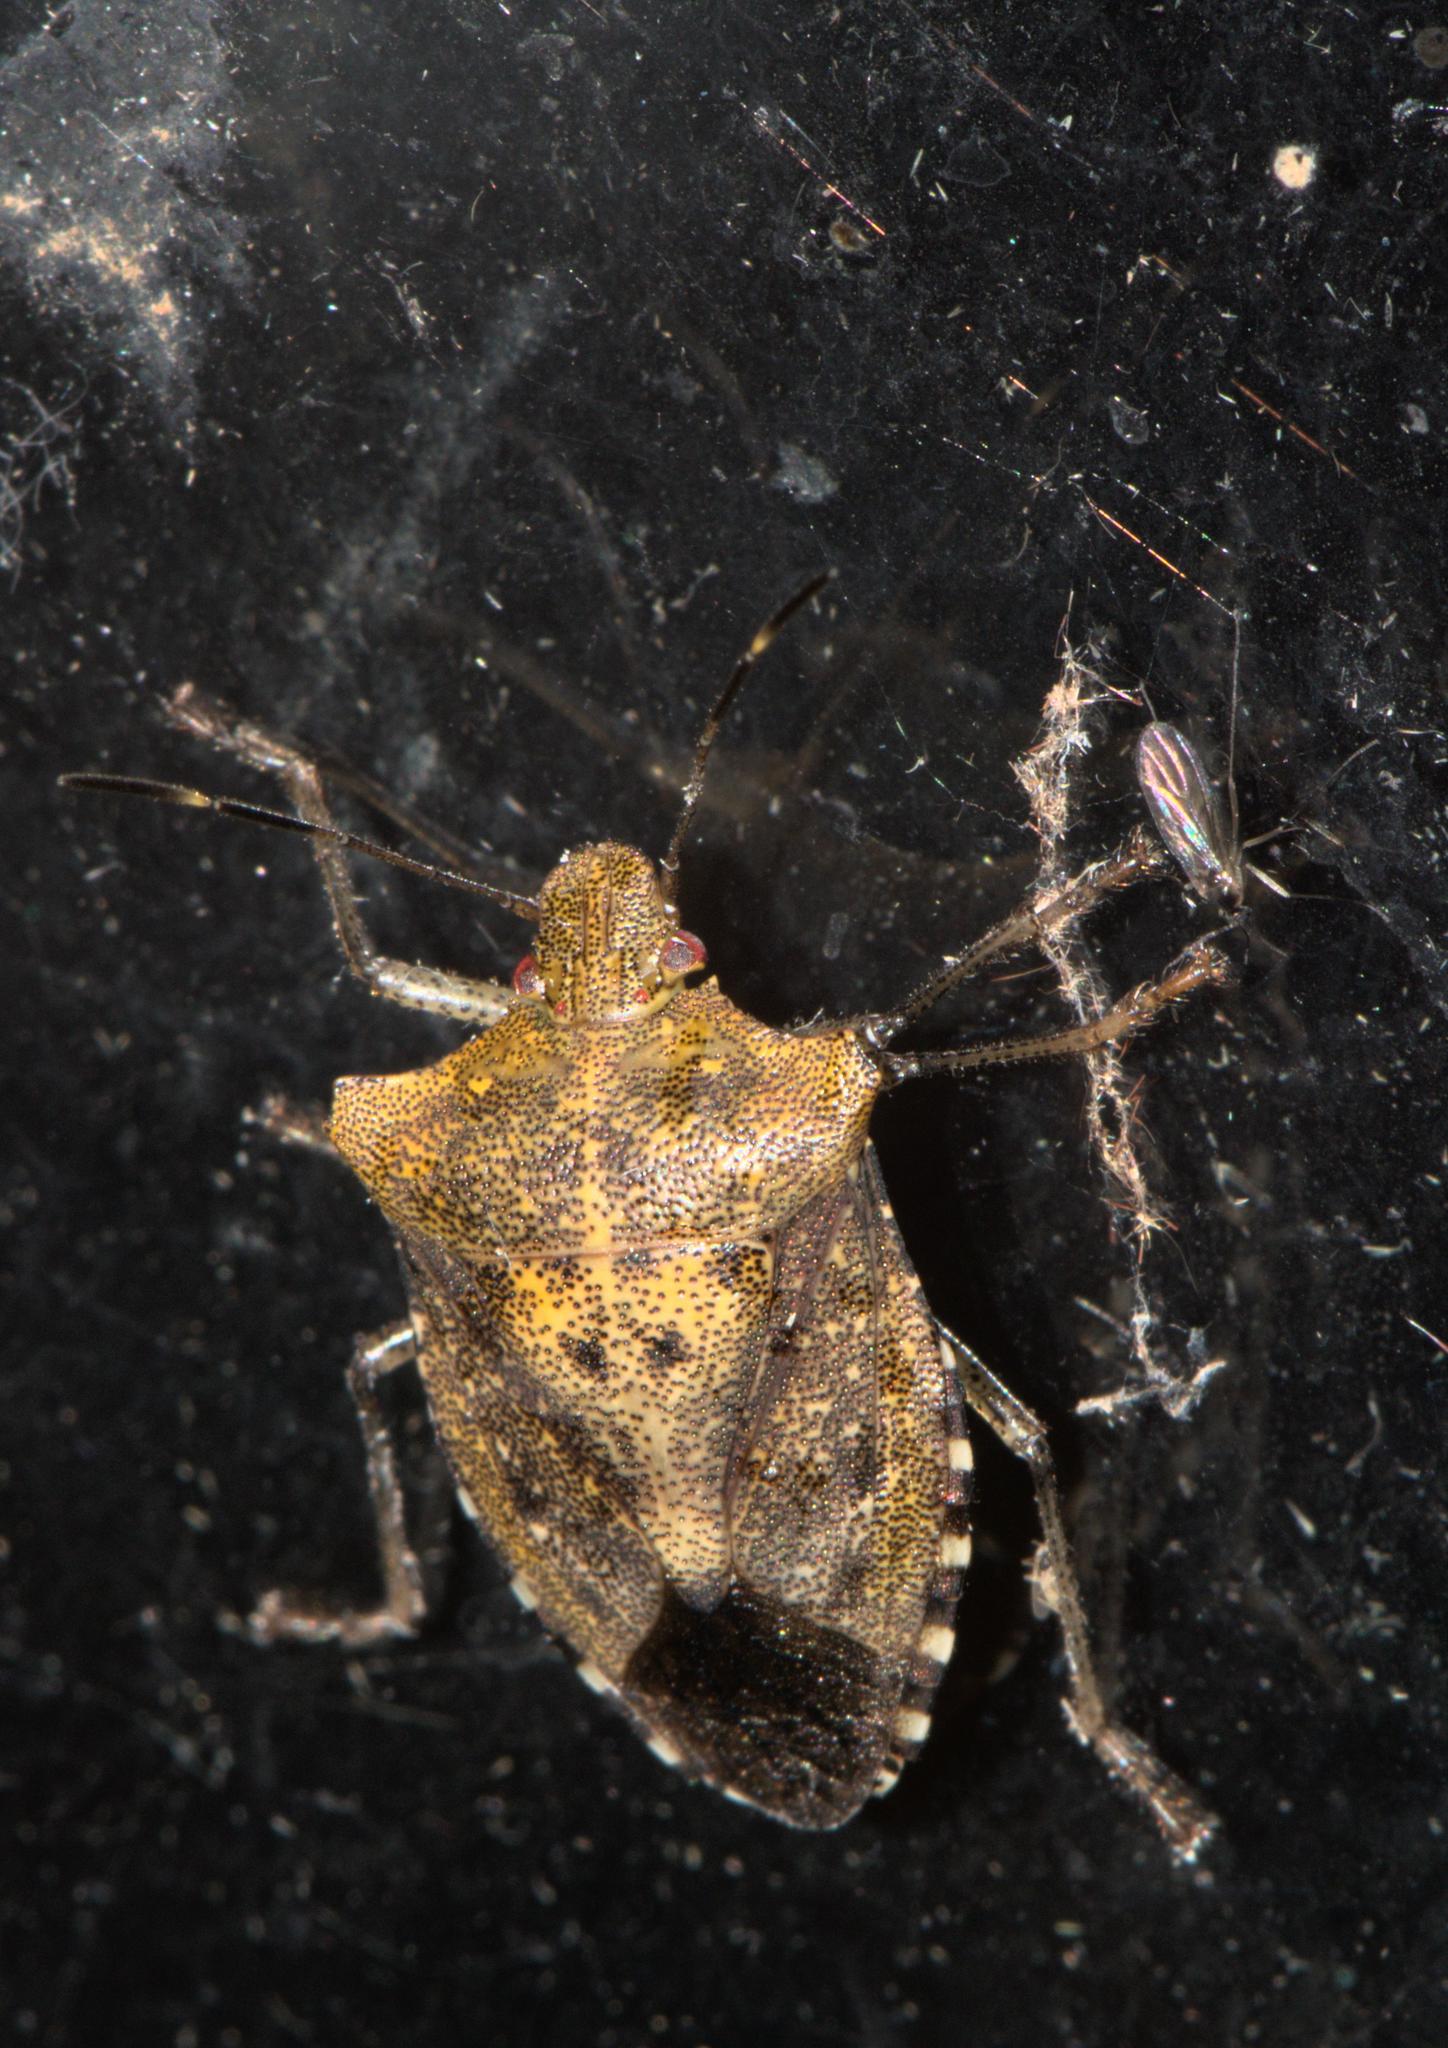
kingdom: Animalia
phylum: Arthropoda
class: Insecta
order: Hemiptera
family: Pentatomidae
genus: Pentatoma
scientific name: Pentatoma
